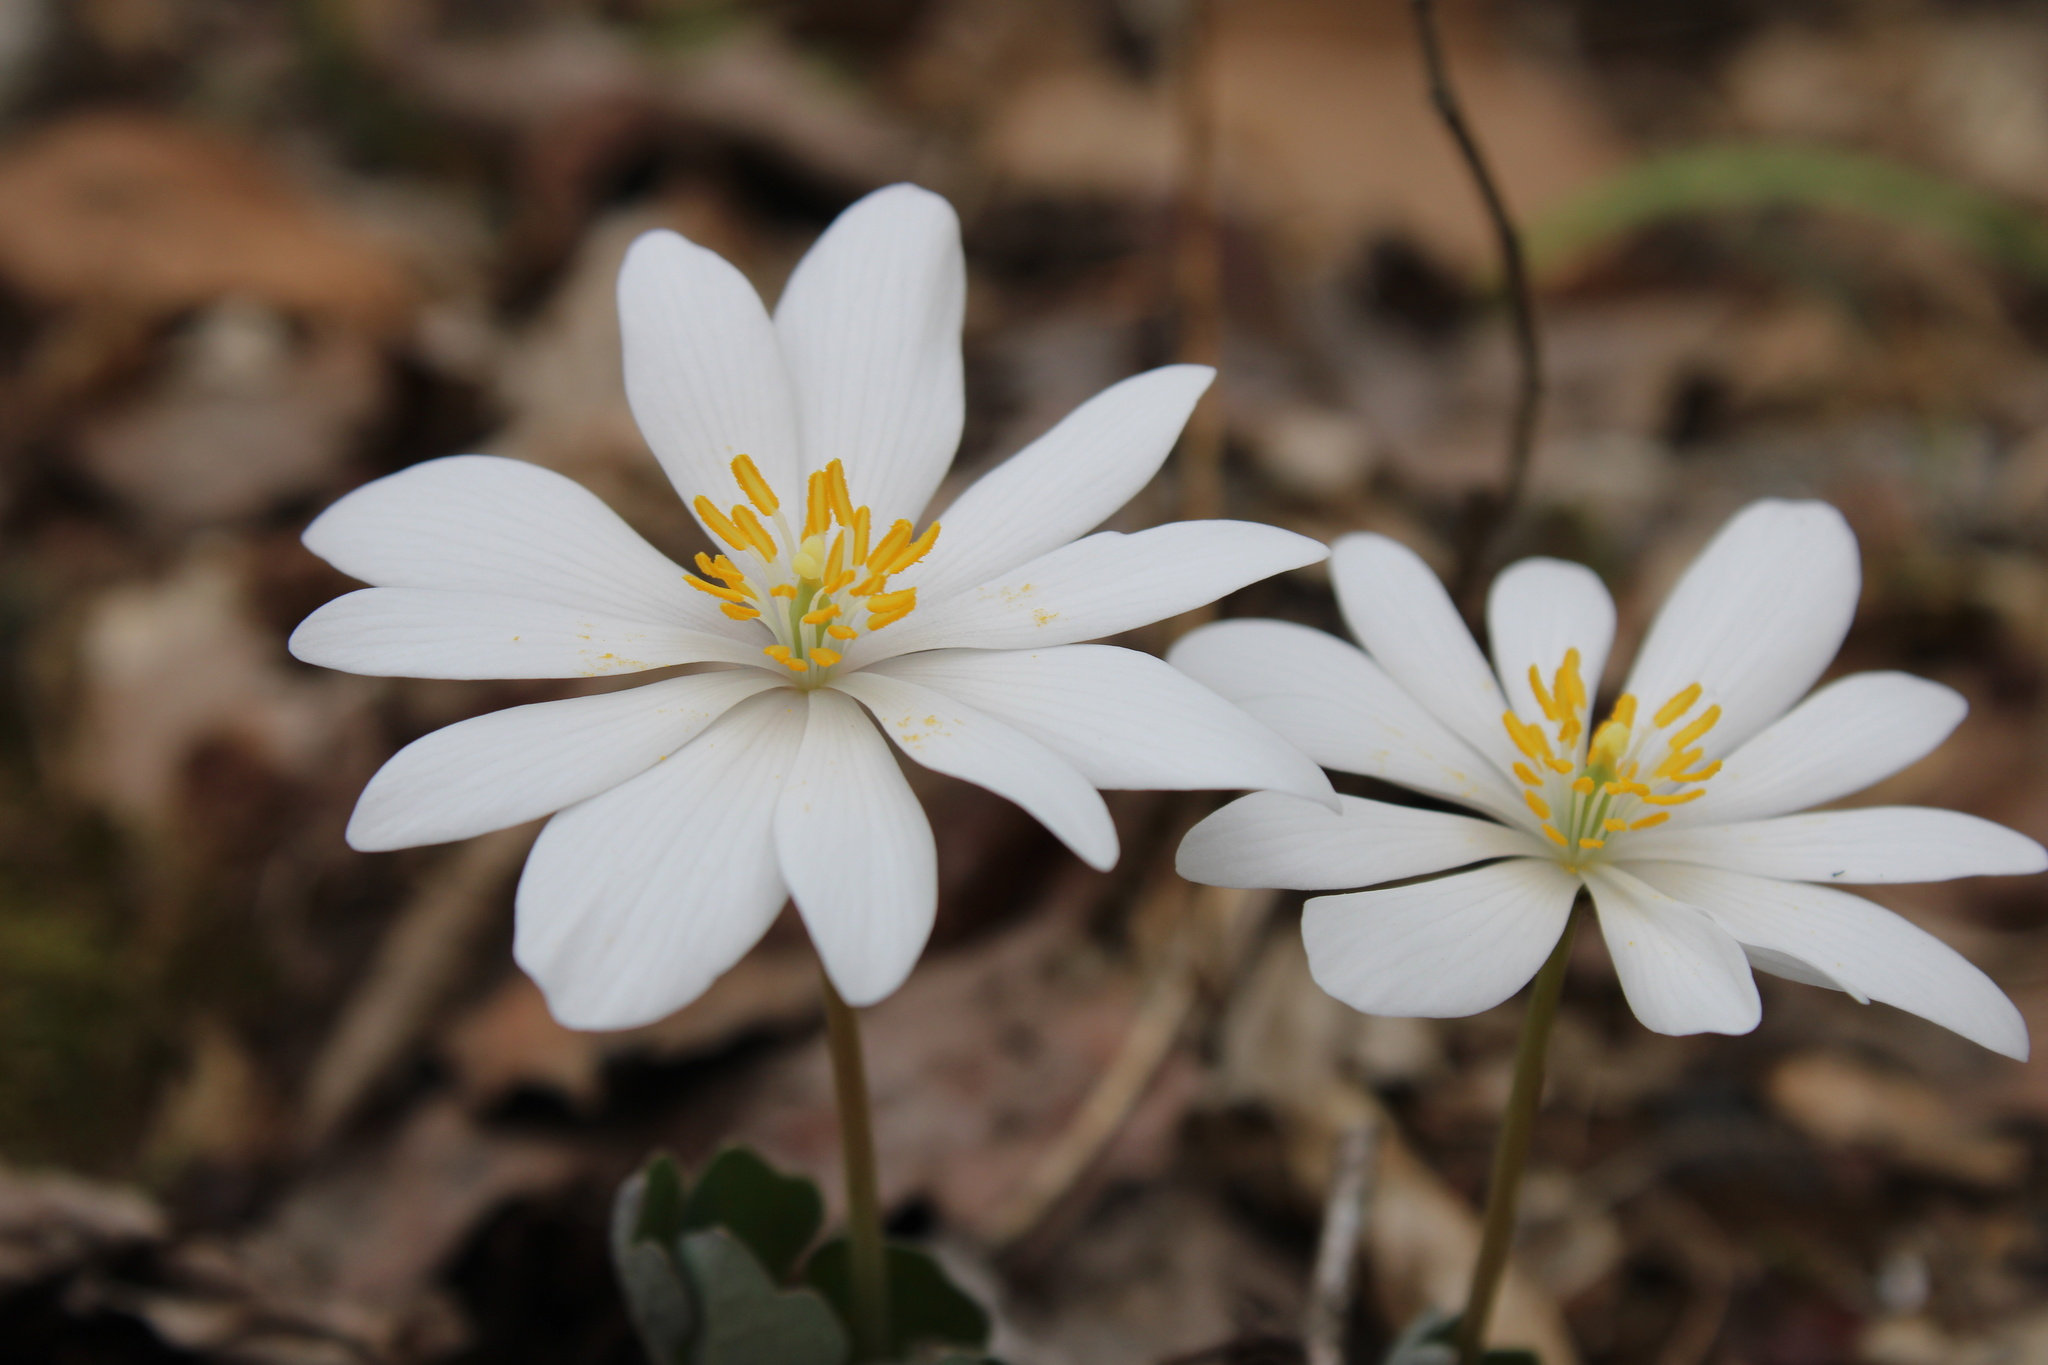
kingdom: Plantae
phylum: Tracheophyta
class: Magnoliopsida
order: Ranunculales
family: Papaveraceae
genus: Sanguinaria
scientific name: Sanguinaria canadensis
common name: Bloodroot
